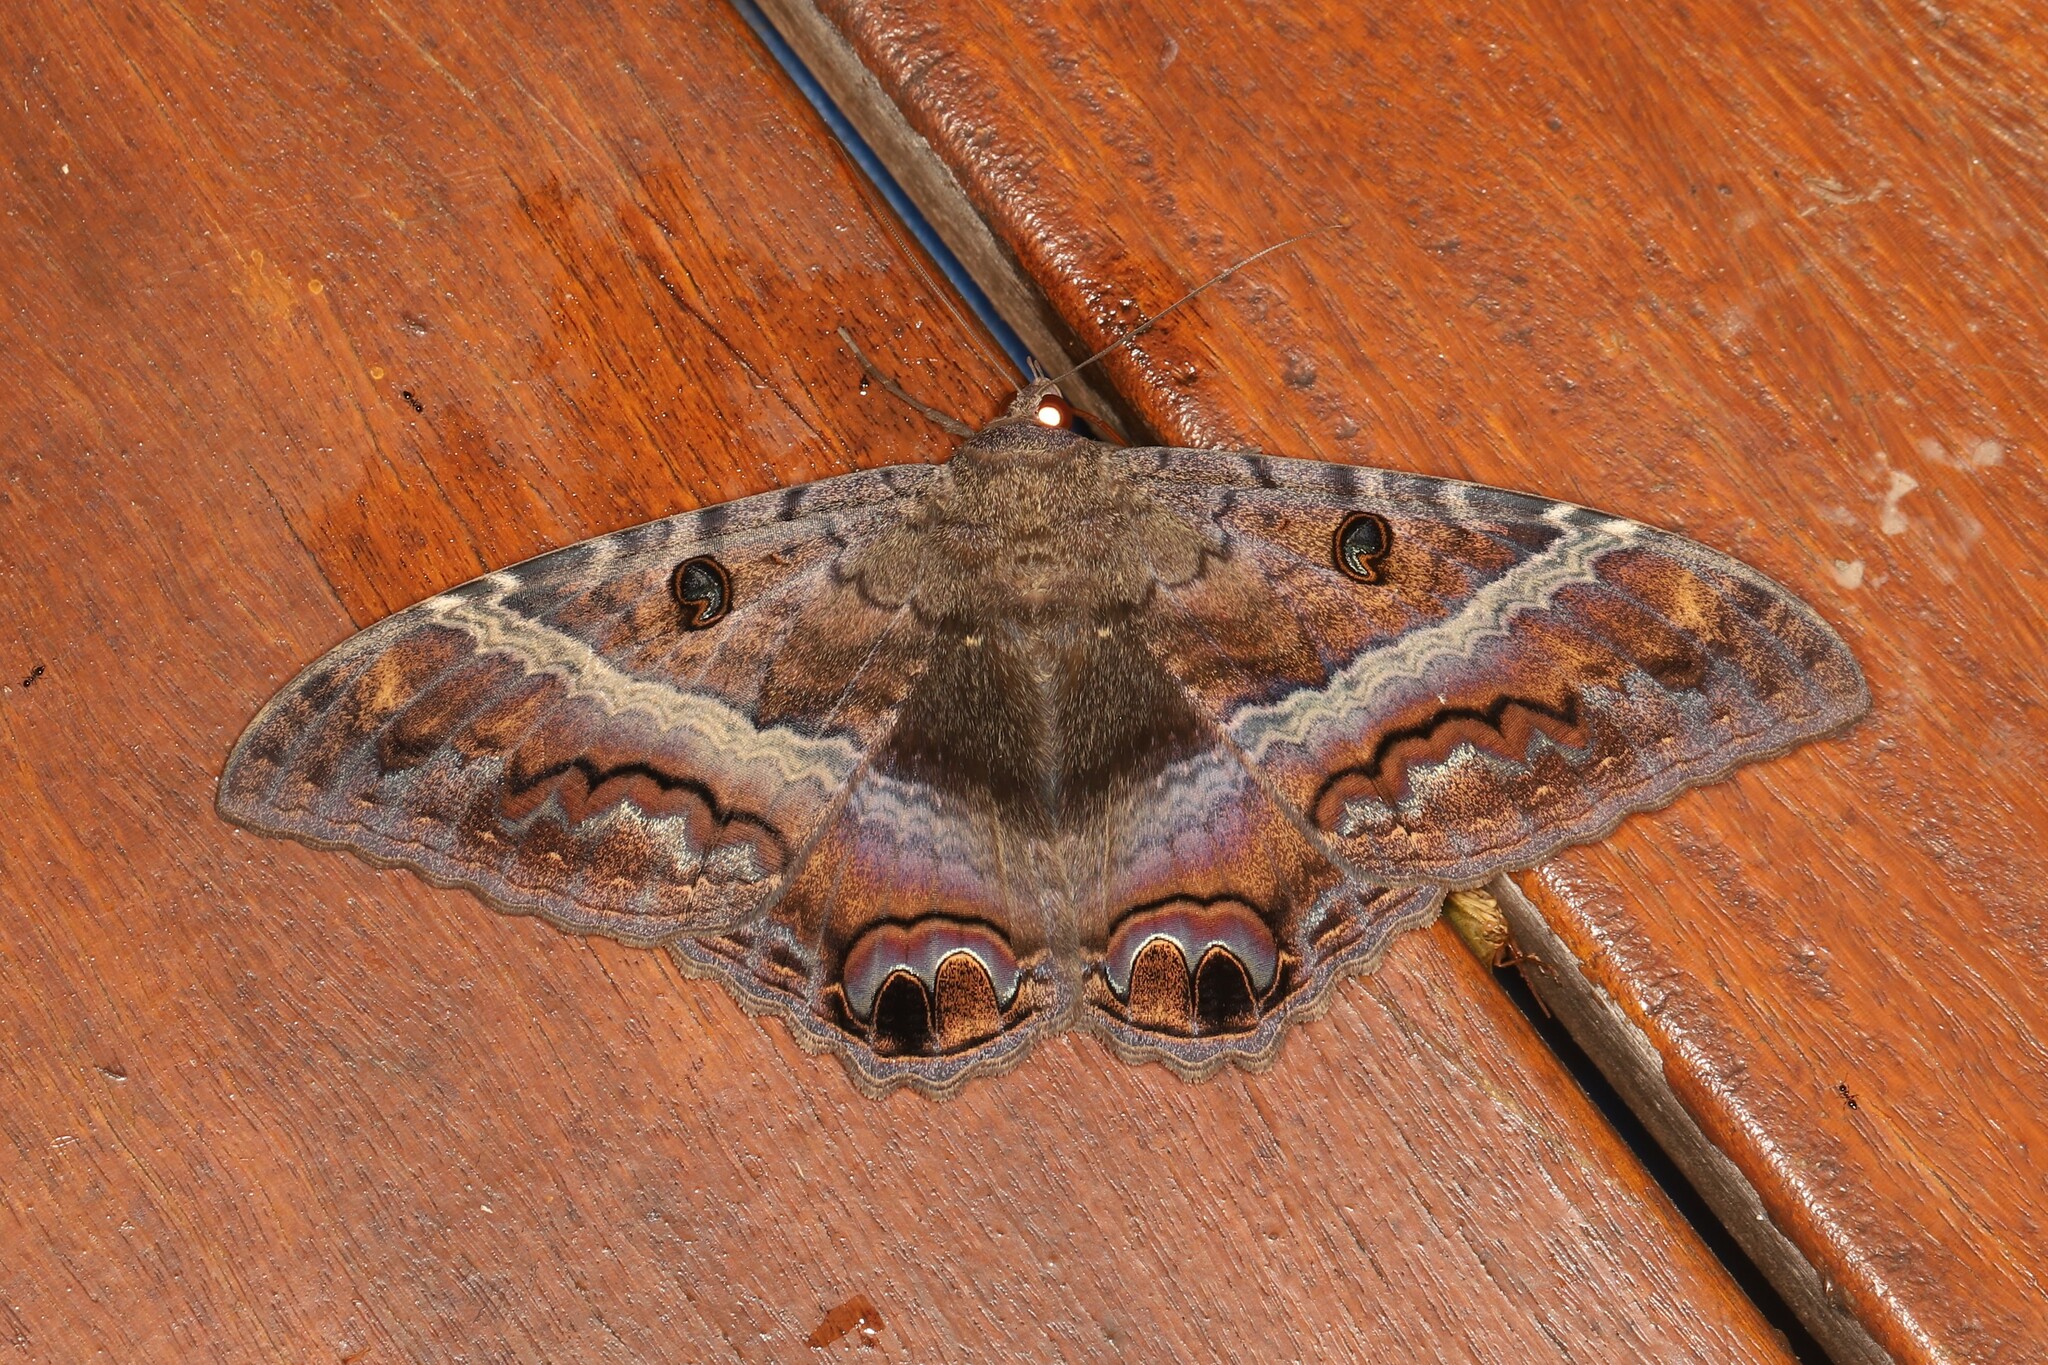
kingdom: Animalia
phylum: Arthropoda
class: Insecta
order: Lepidoptera
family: Erebidae
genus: Ascalapha
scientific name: Ascalapha odorata
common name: Black witch
